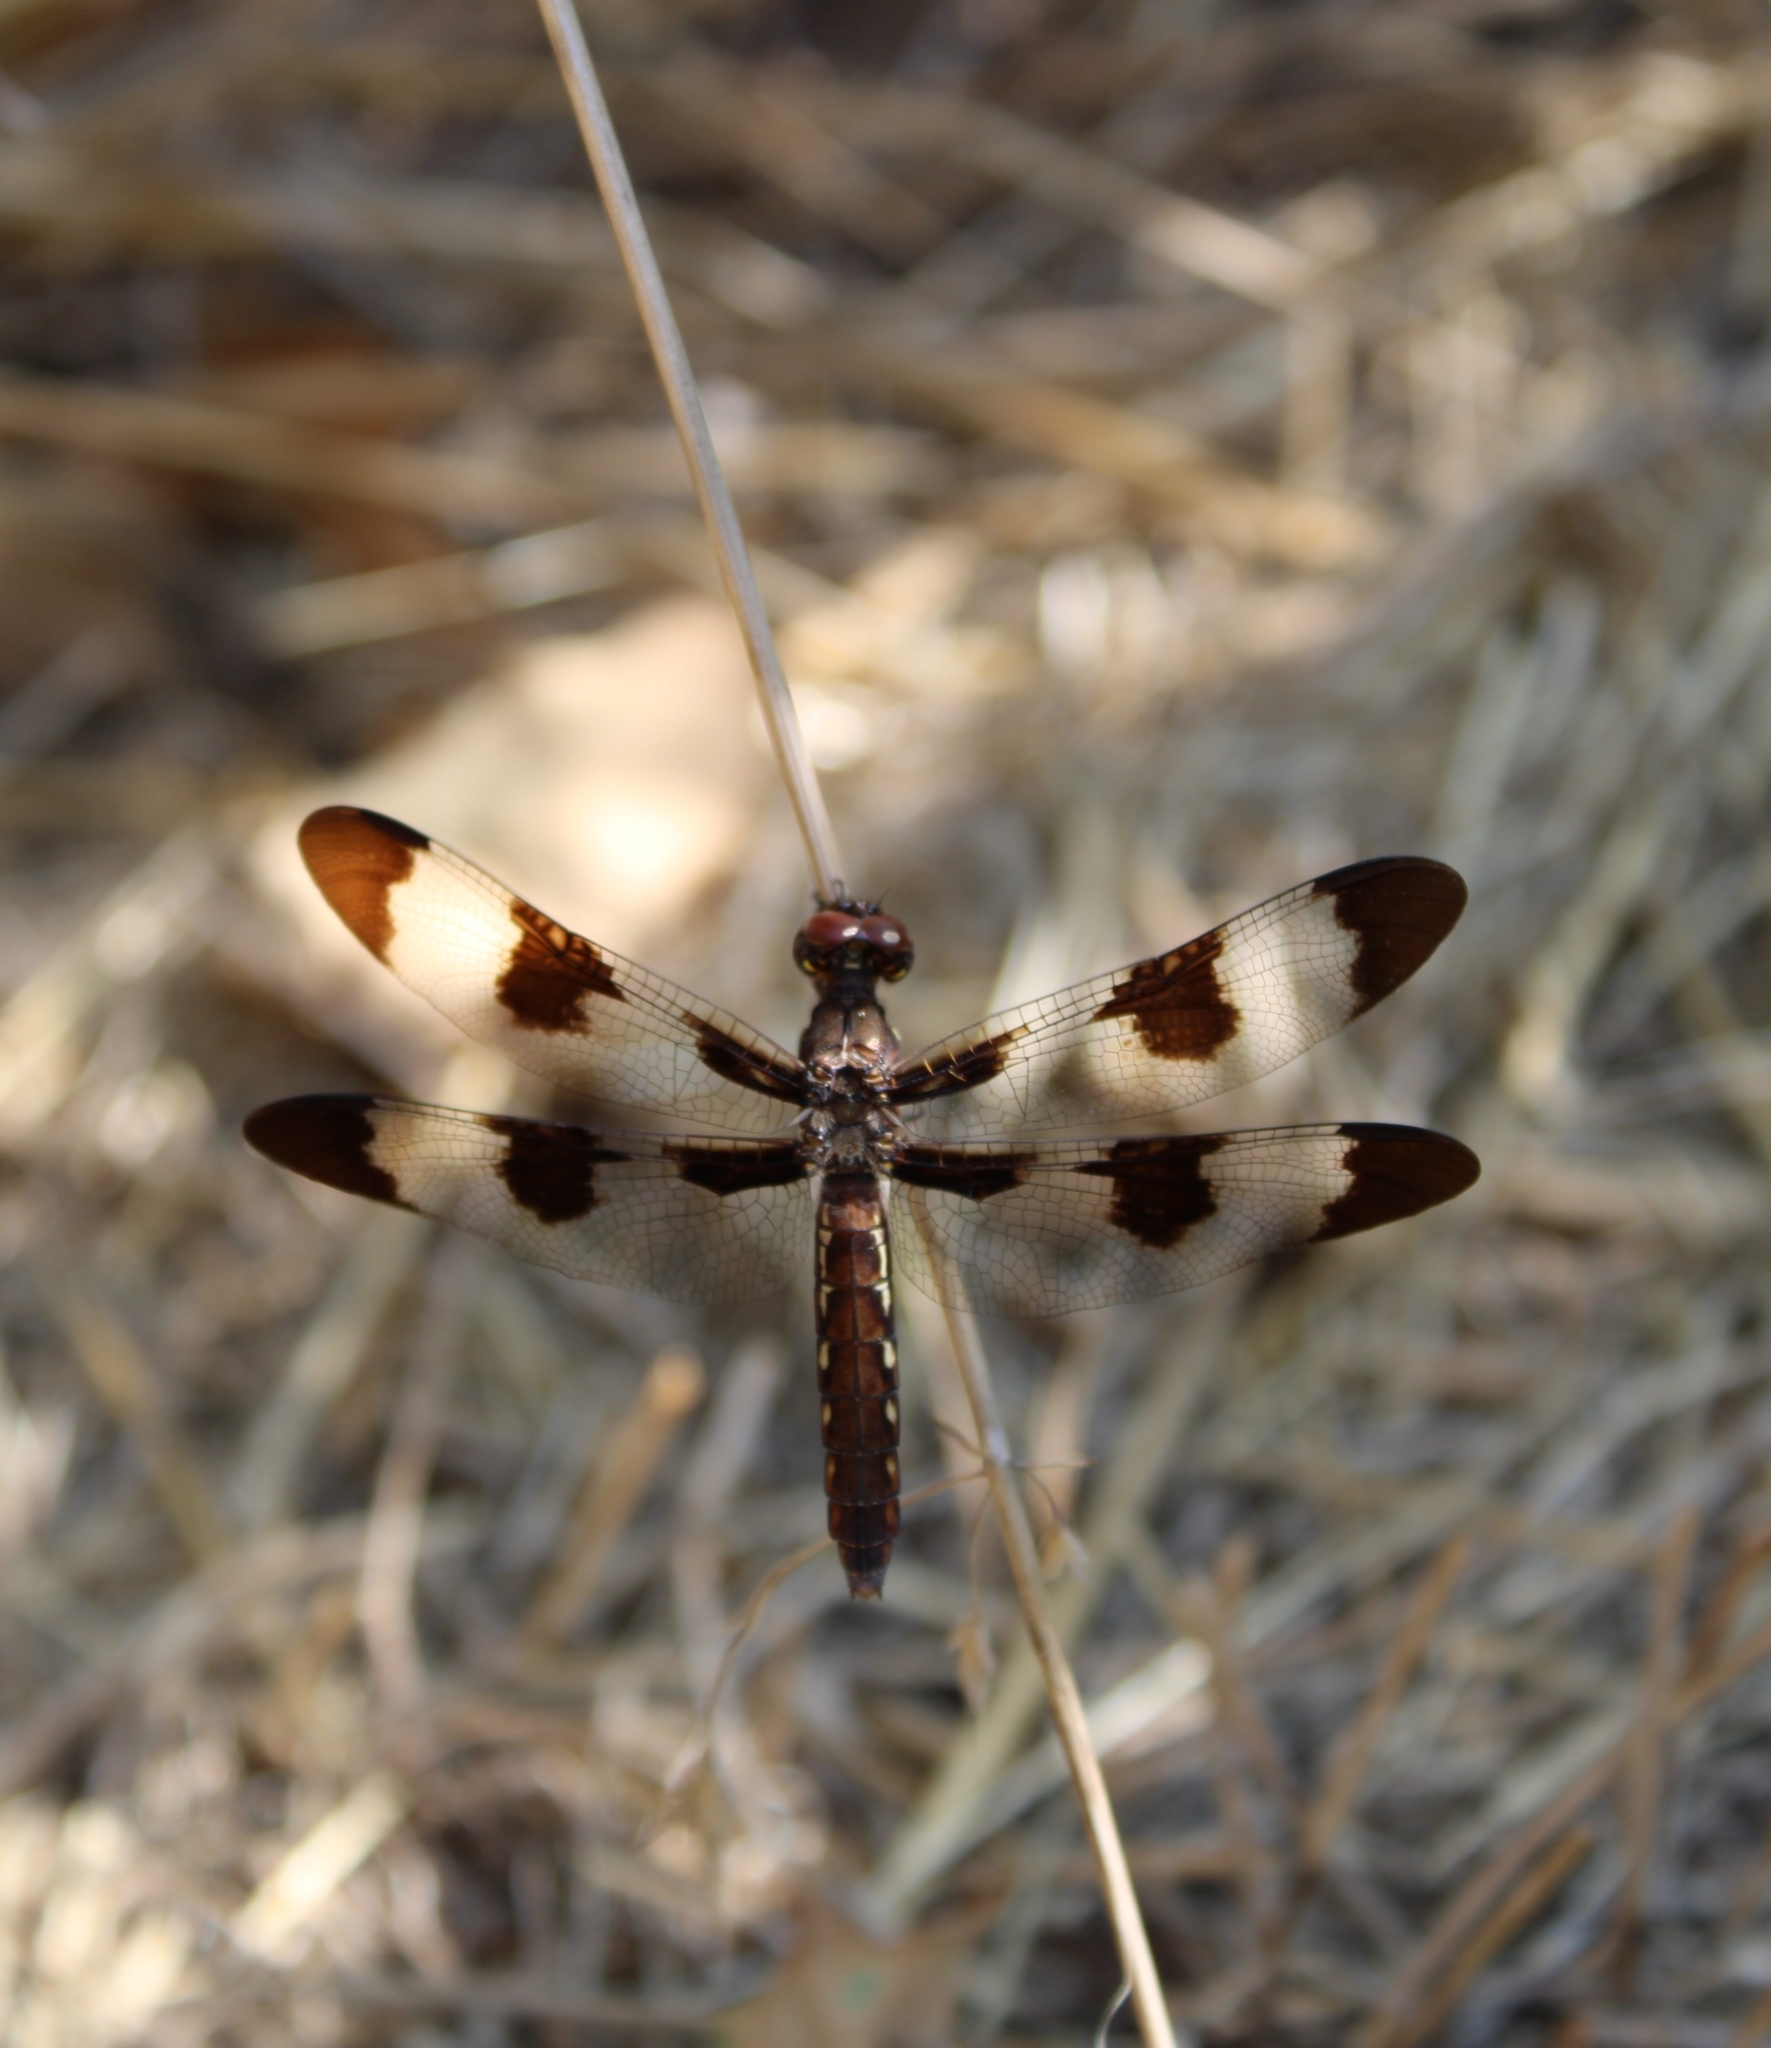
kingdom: Animalia
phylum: Arthropoda
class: Insecta
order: Odonata
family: Libellulidae
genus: Plathemis
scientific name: Plathemis lydia
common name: Common whitetail
